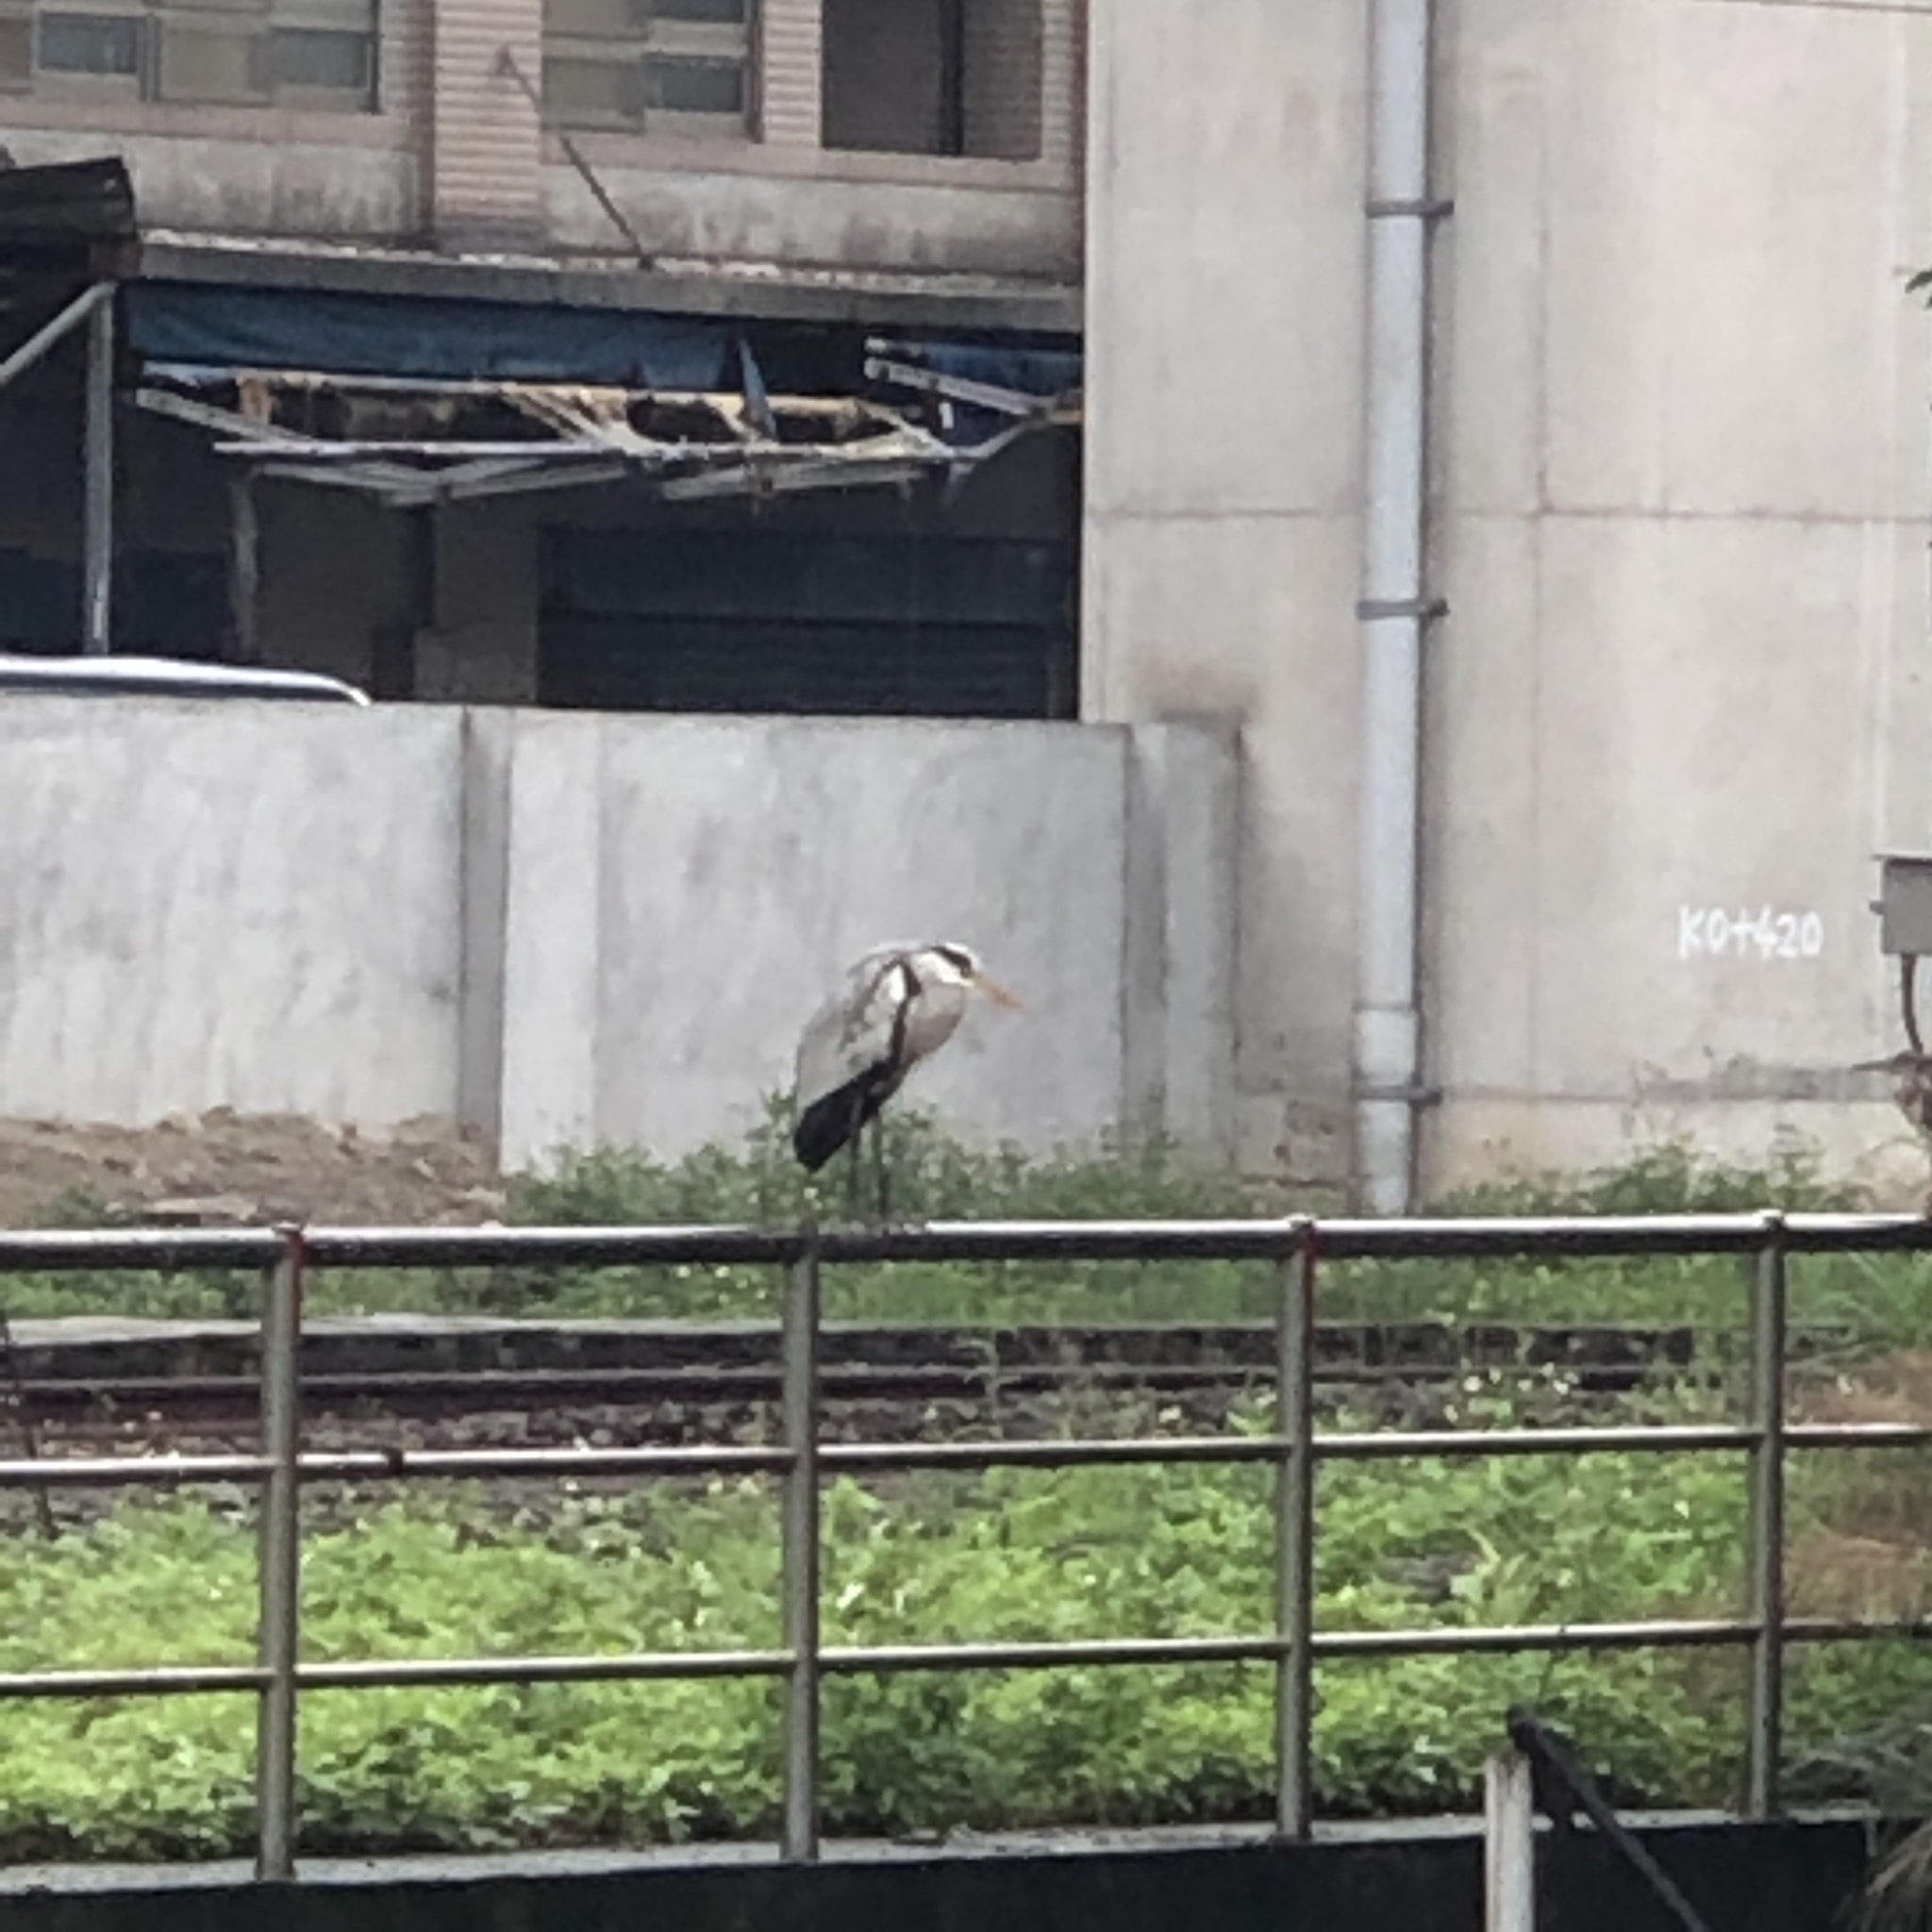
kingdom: Animalia
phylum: Chordata
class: Aves
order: Pelecaniformes
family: Ardeidae
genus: Ardea
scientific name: Ardea cinerea
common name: Grey heron
